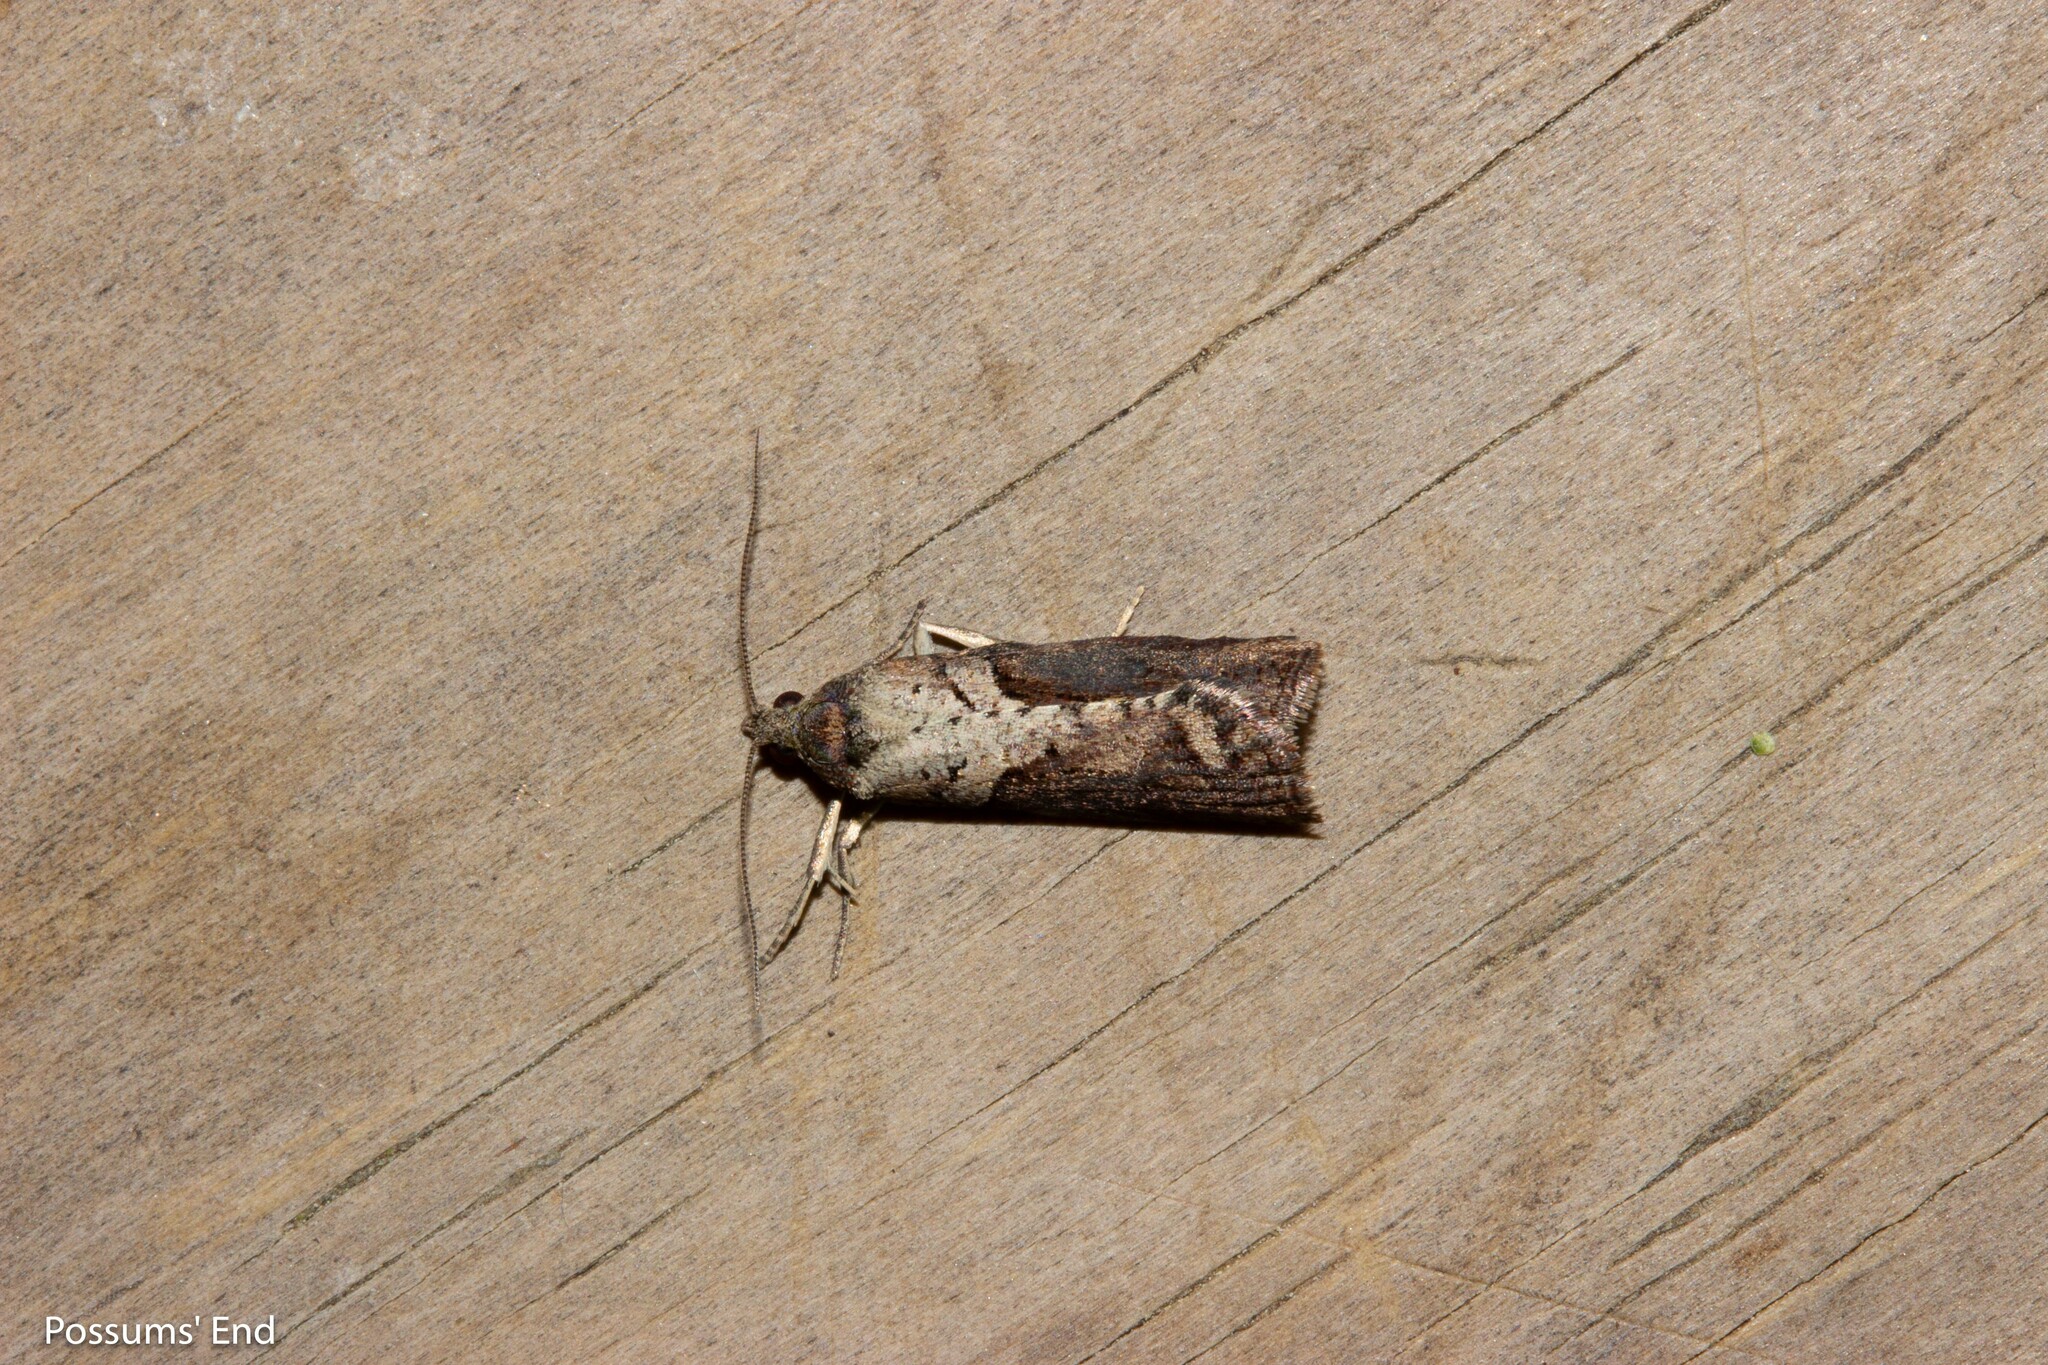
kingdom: Animalia
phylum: Arthropoda
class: Insecta
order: Lepidoptera
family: Tortricidae
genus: Harmologa
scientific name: Harmologa scoliastis
